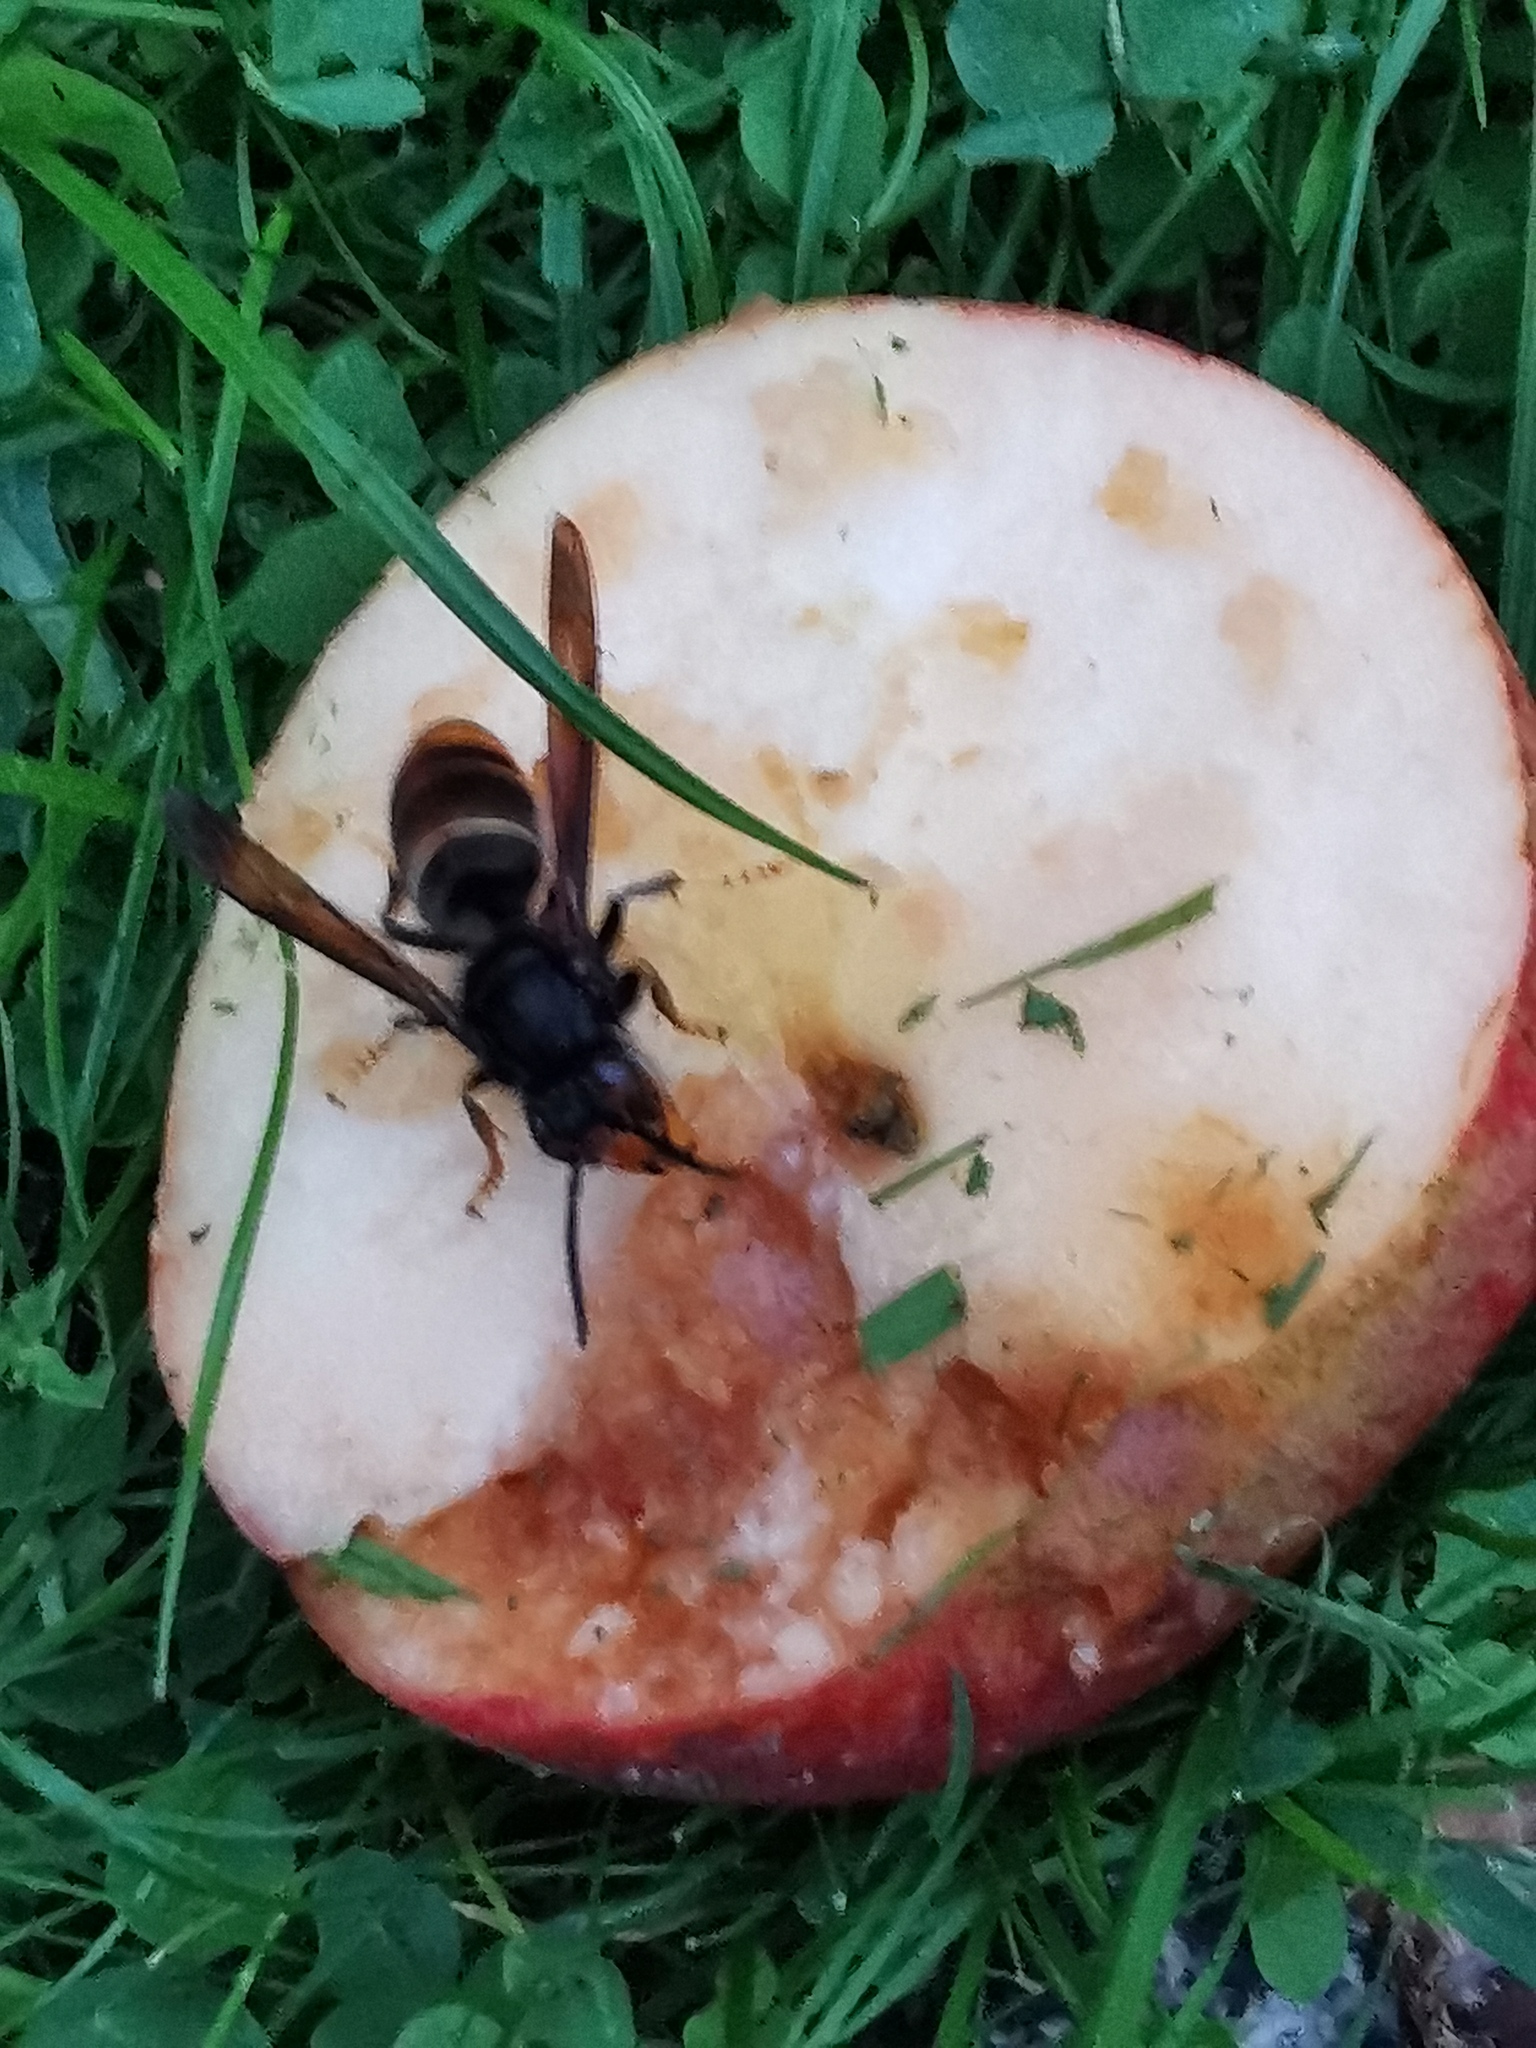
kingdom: Animalia
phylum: Arthropoda
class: Insecta
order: Hymenoptera
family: Vespidae
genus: Vespa
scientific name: Vespa velutina
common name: Asian hornet
